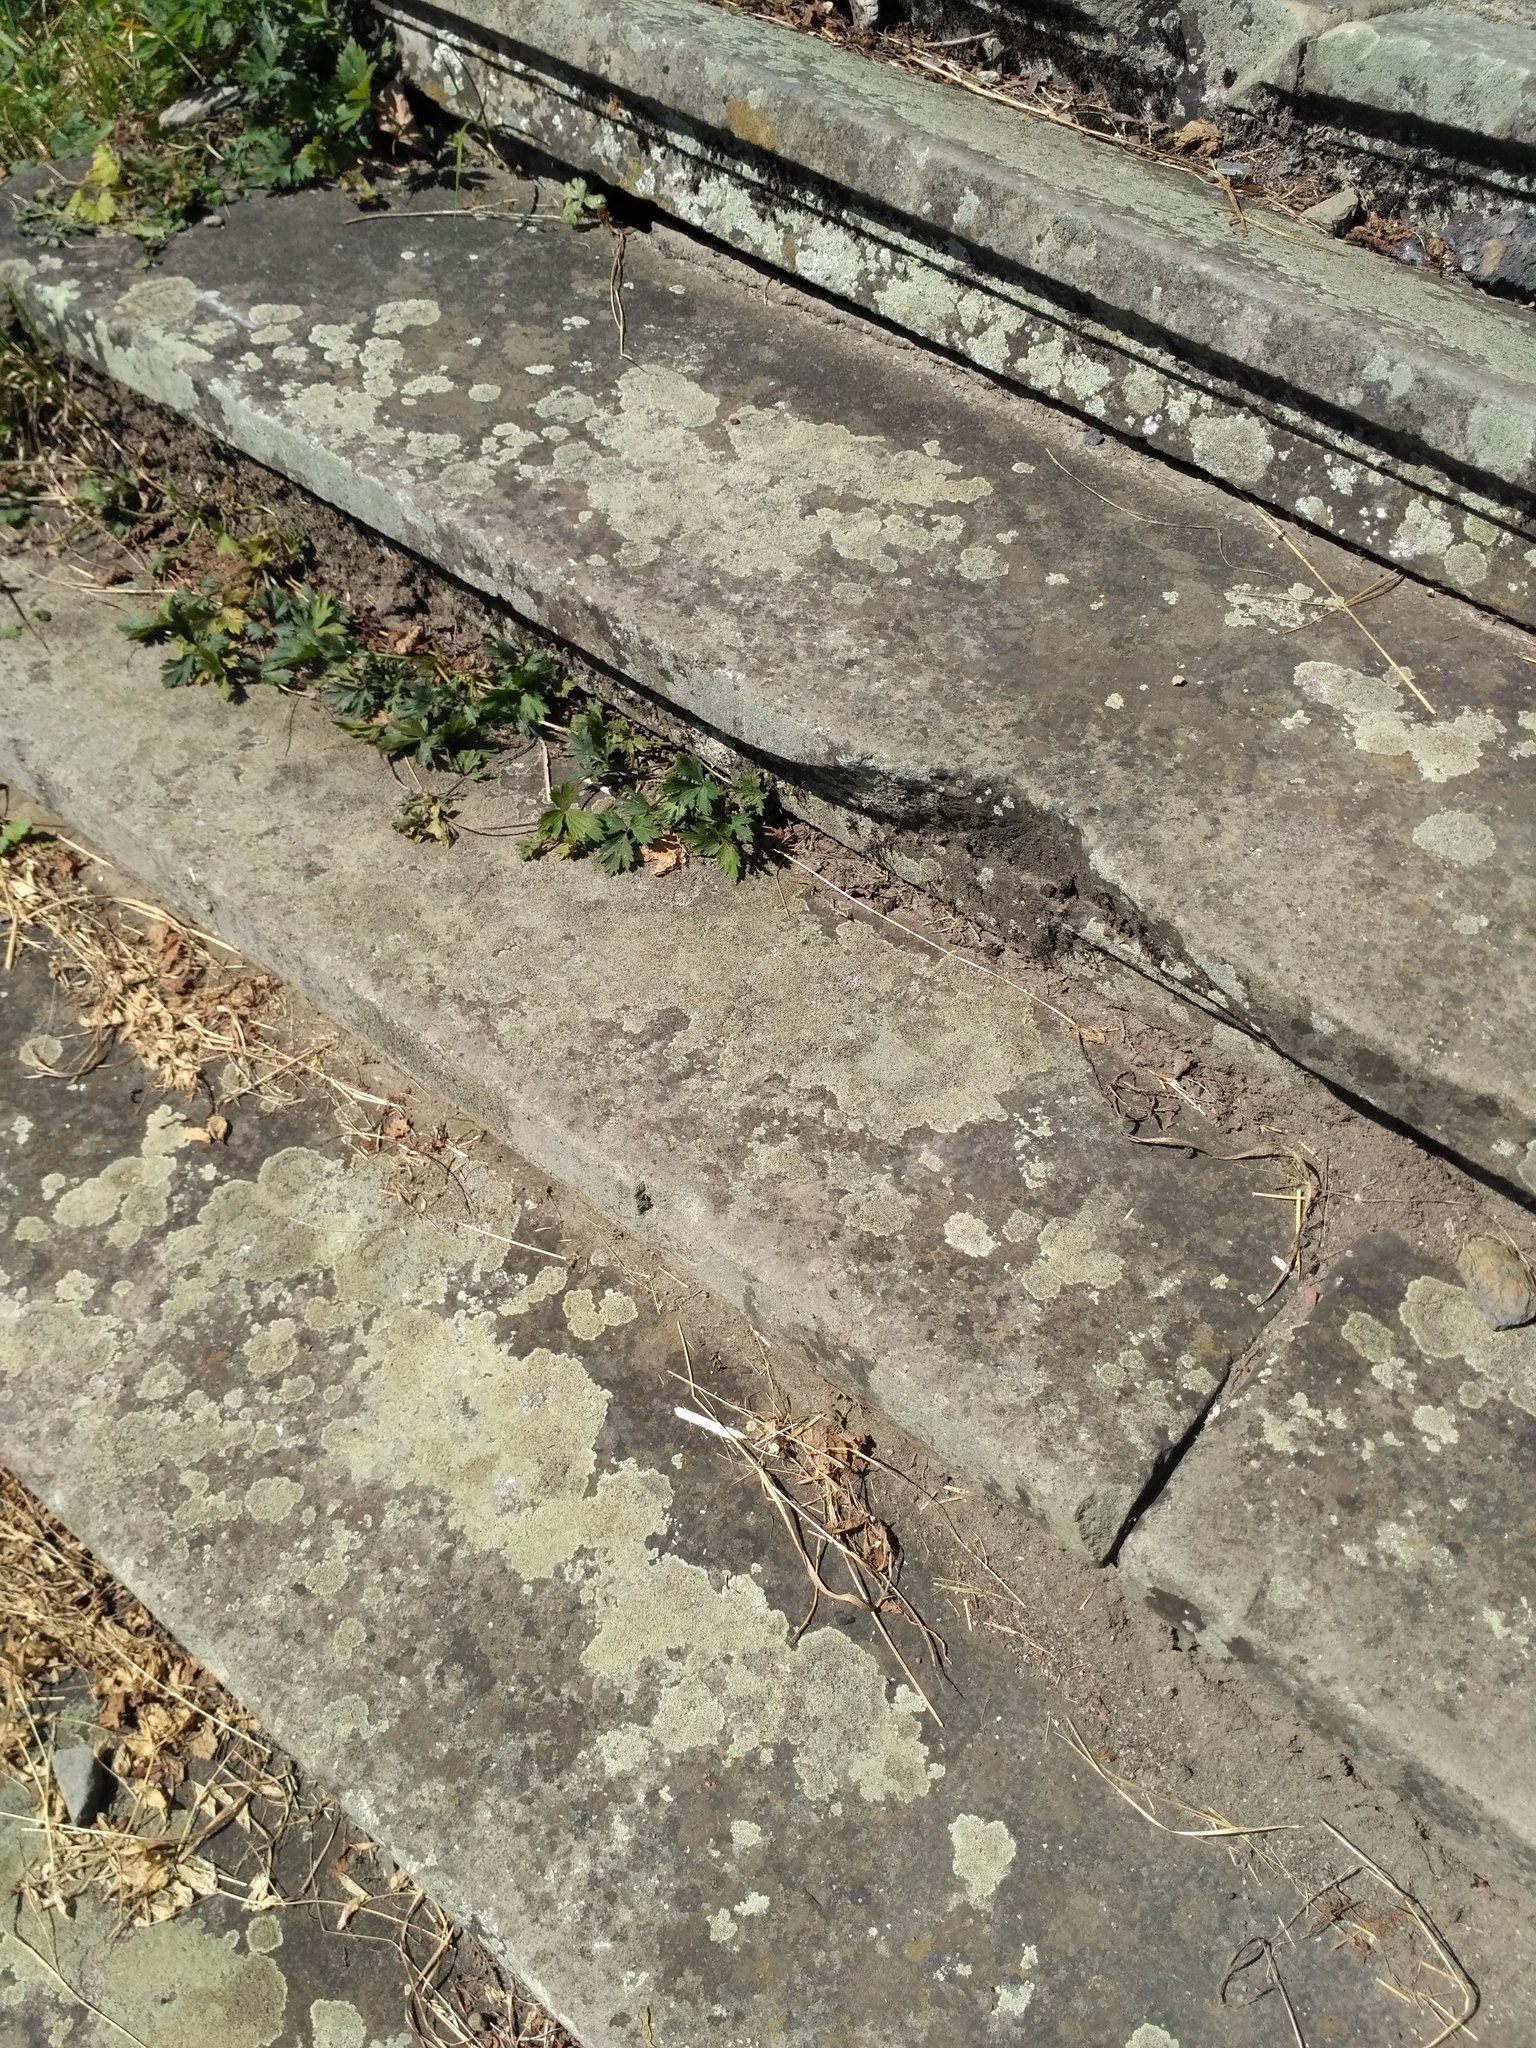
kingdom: Fungi
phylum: Ascomycota
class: Lecanoromycetes
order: Lecanorales
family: Lecanoraceae
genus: Protoparmeliopsis
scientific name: Protoparmeliopsis muralis
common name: Stonewall rim lichen
